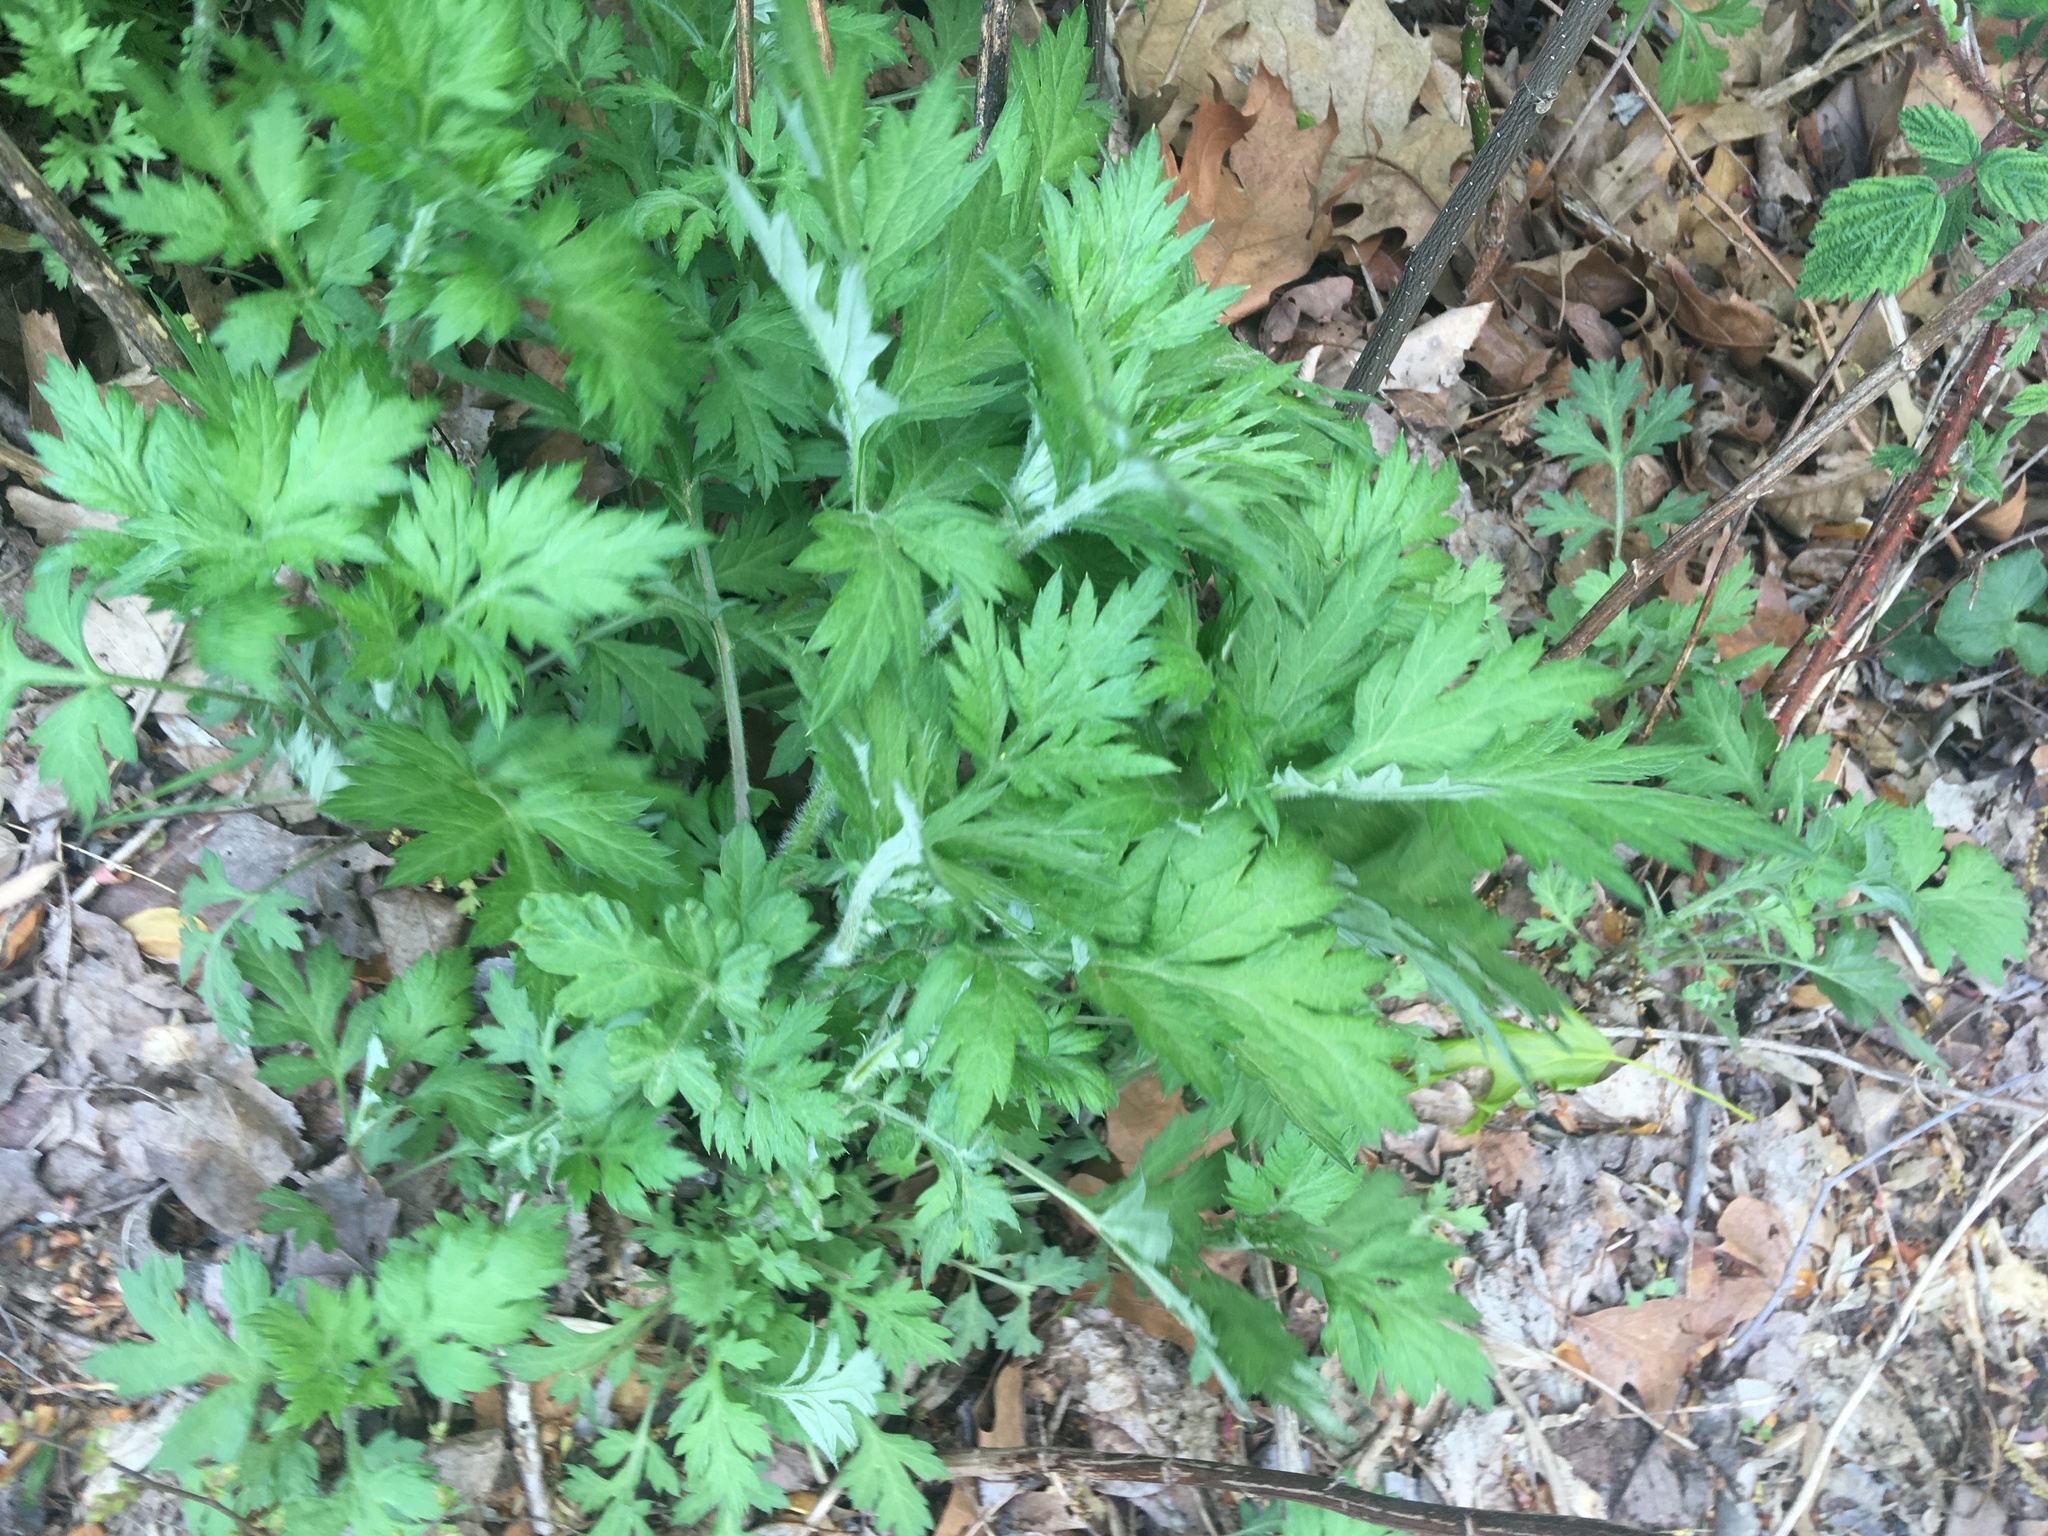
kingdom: Plantae
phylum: Tracheophyta
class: Magnoliopsida
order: Asterales
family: Asteraceae
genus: Artemisia
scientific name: Artemisia vulgaris
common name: Mugwort
